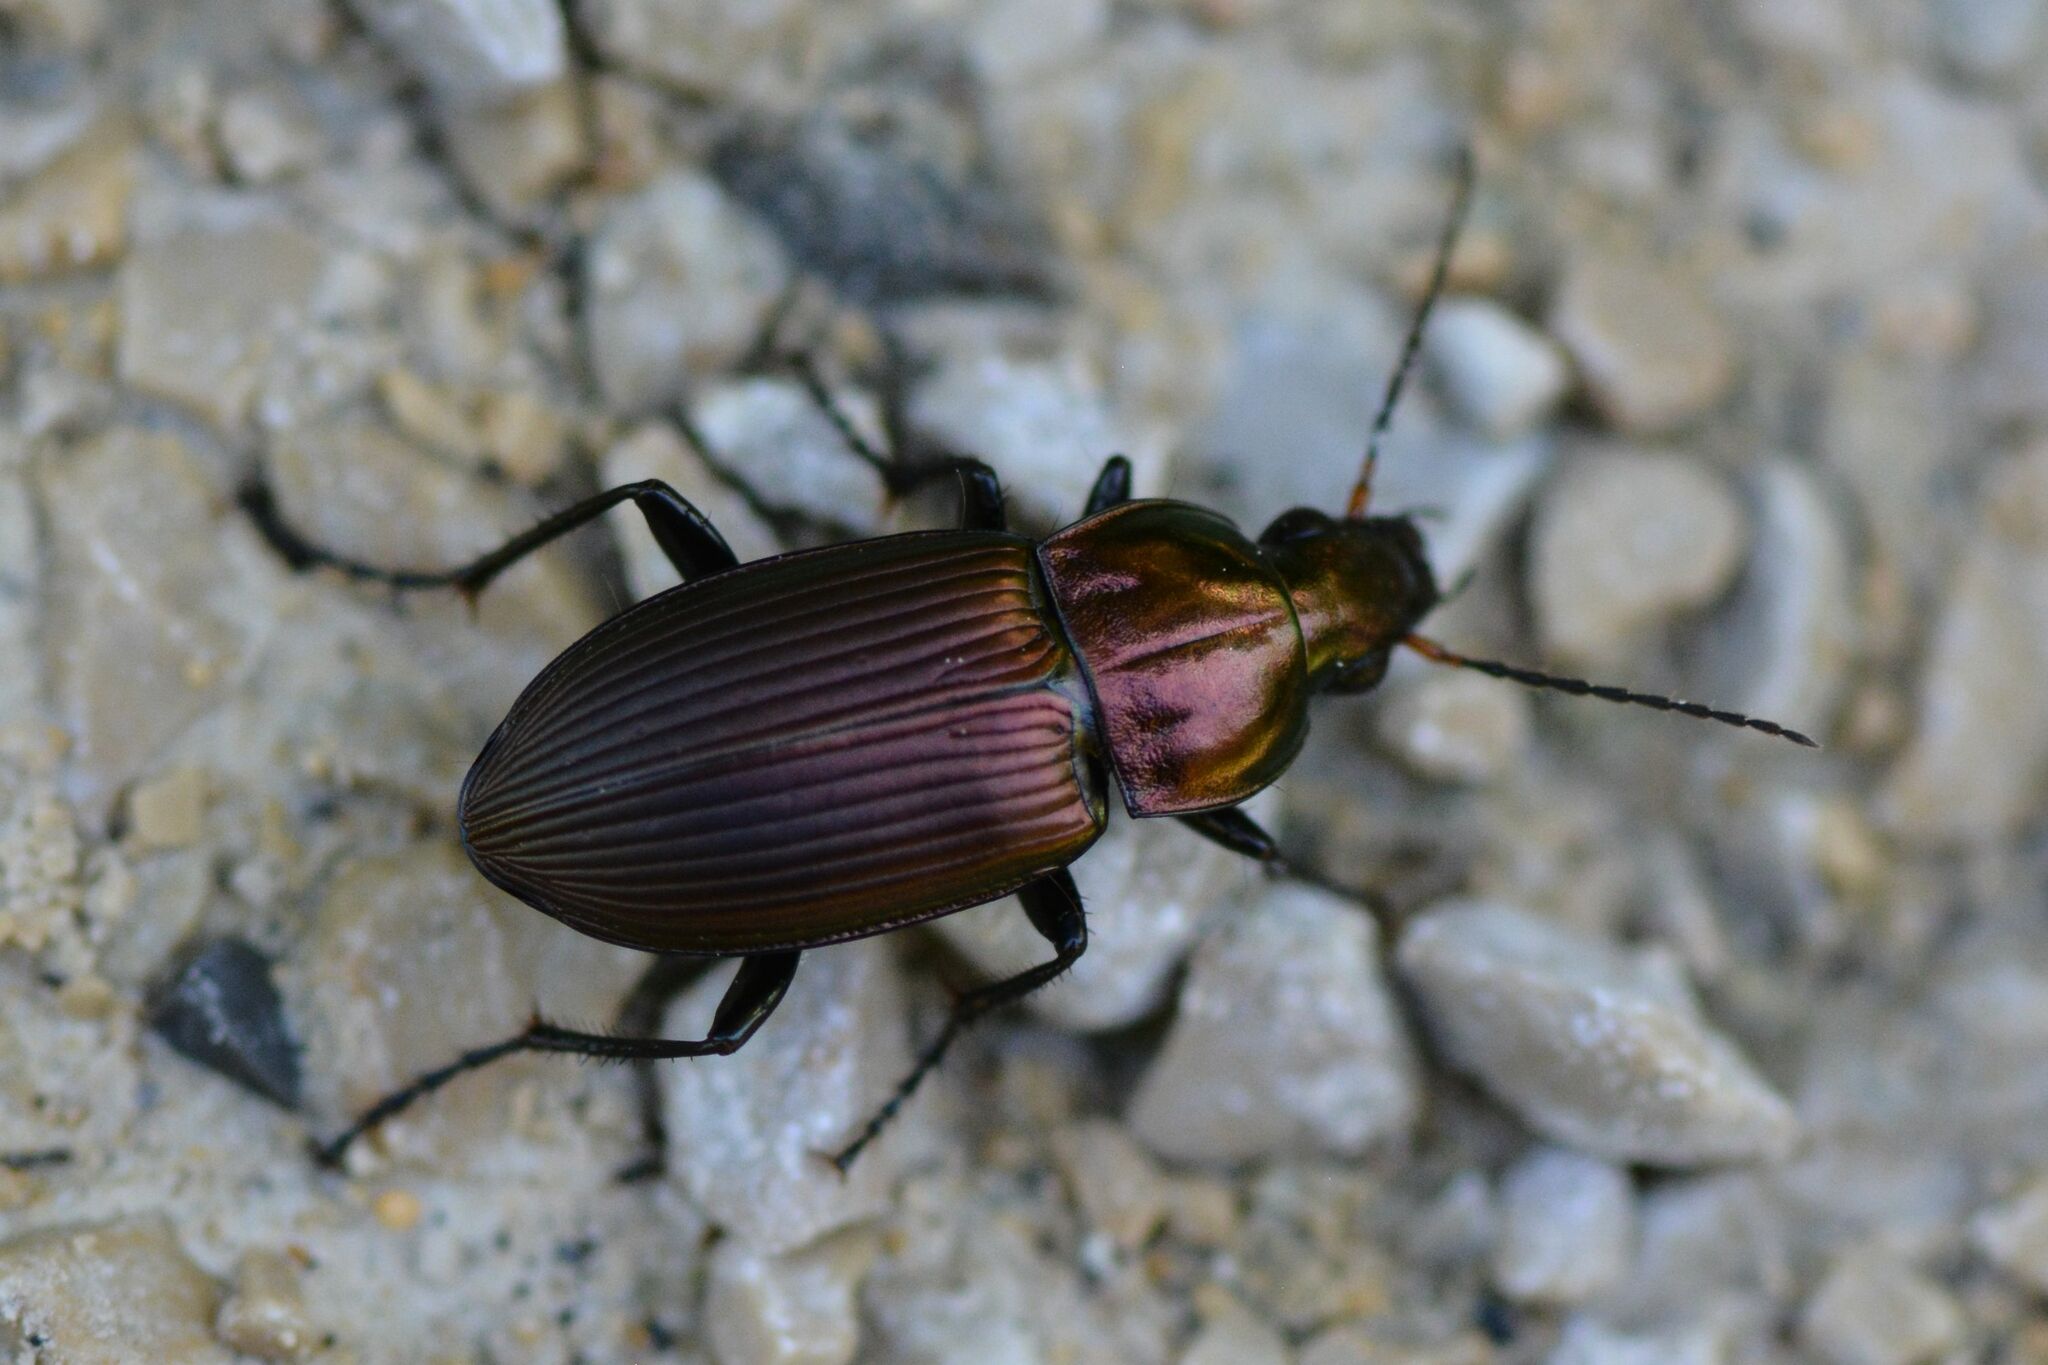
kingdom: Animalia
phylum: Arthropoda
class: Insecta
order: Coleoptera
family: Carabidae
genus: Poecilus
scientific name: Poecilus cupreus
